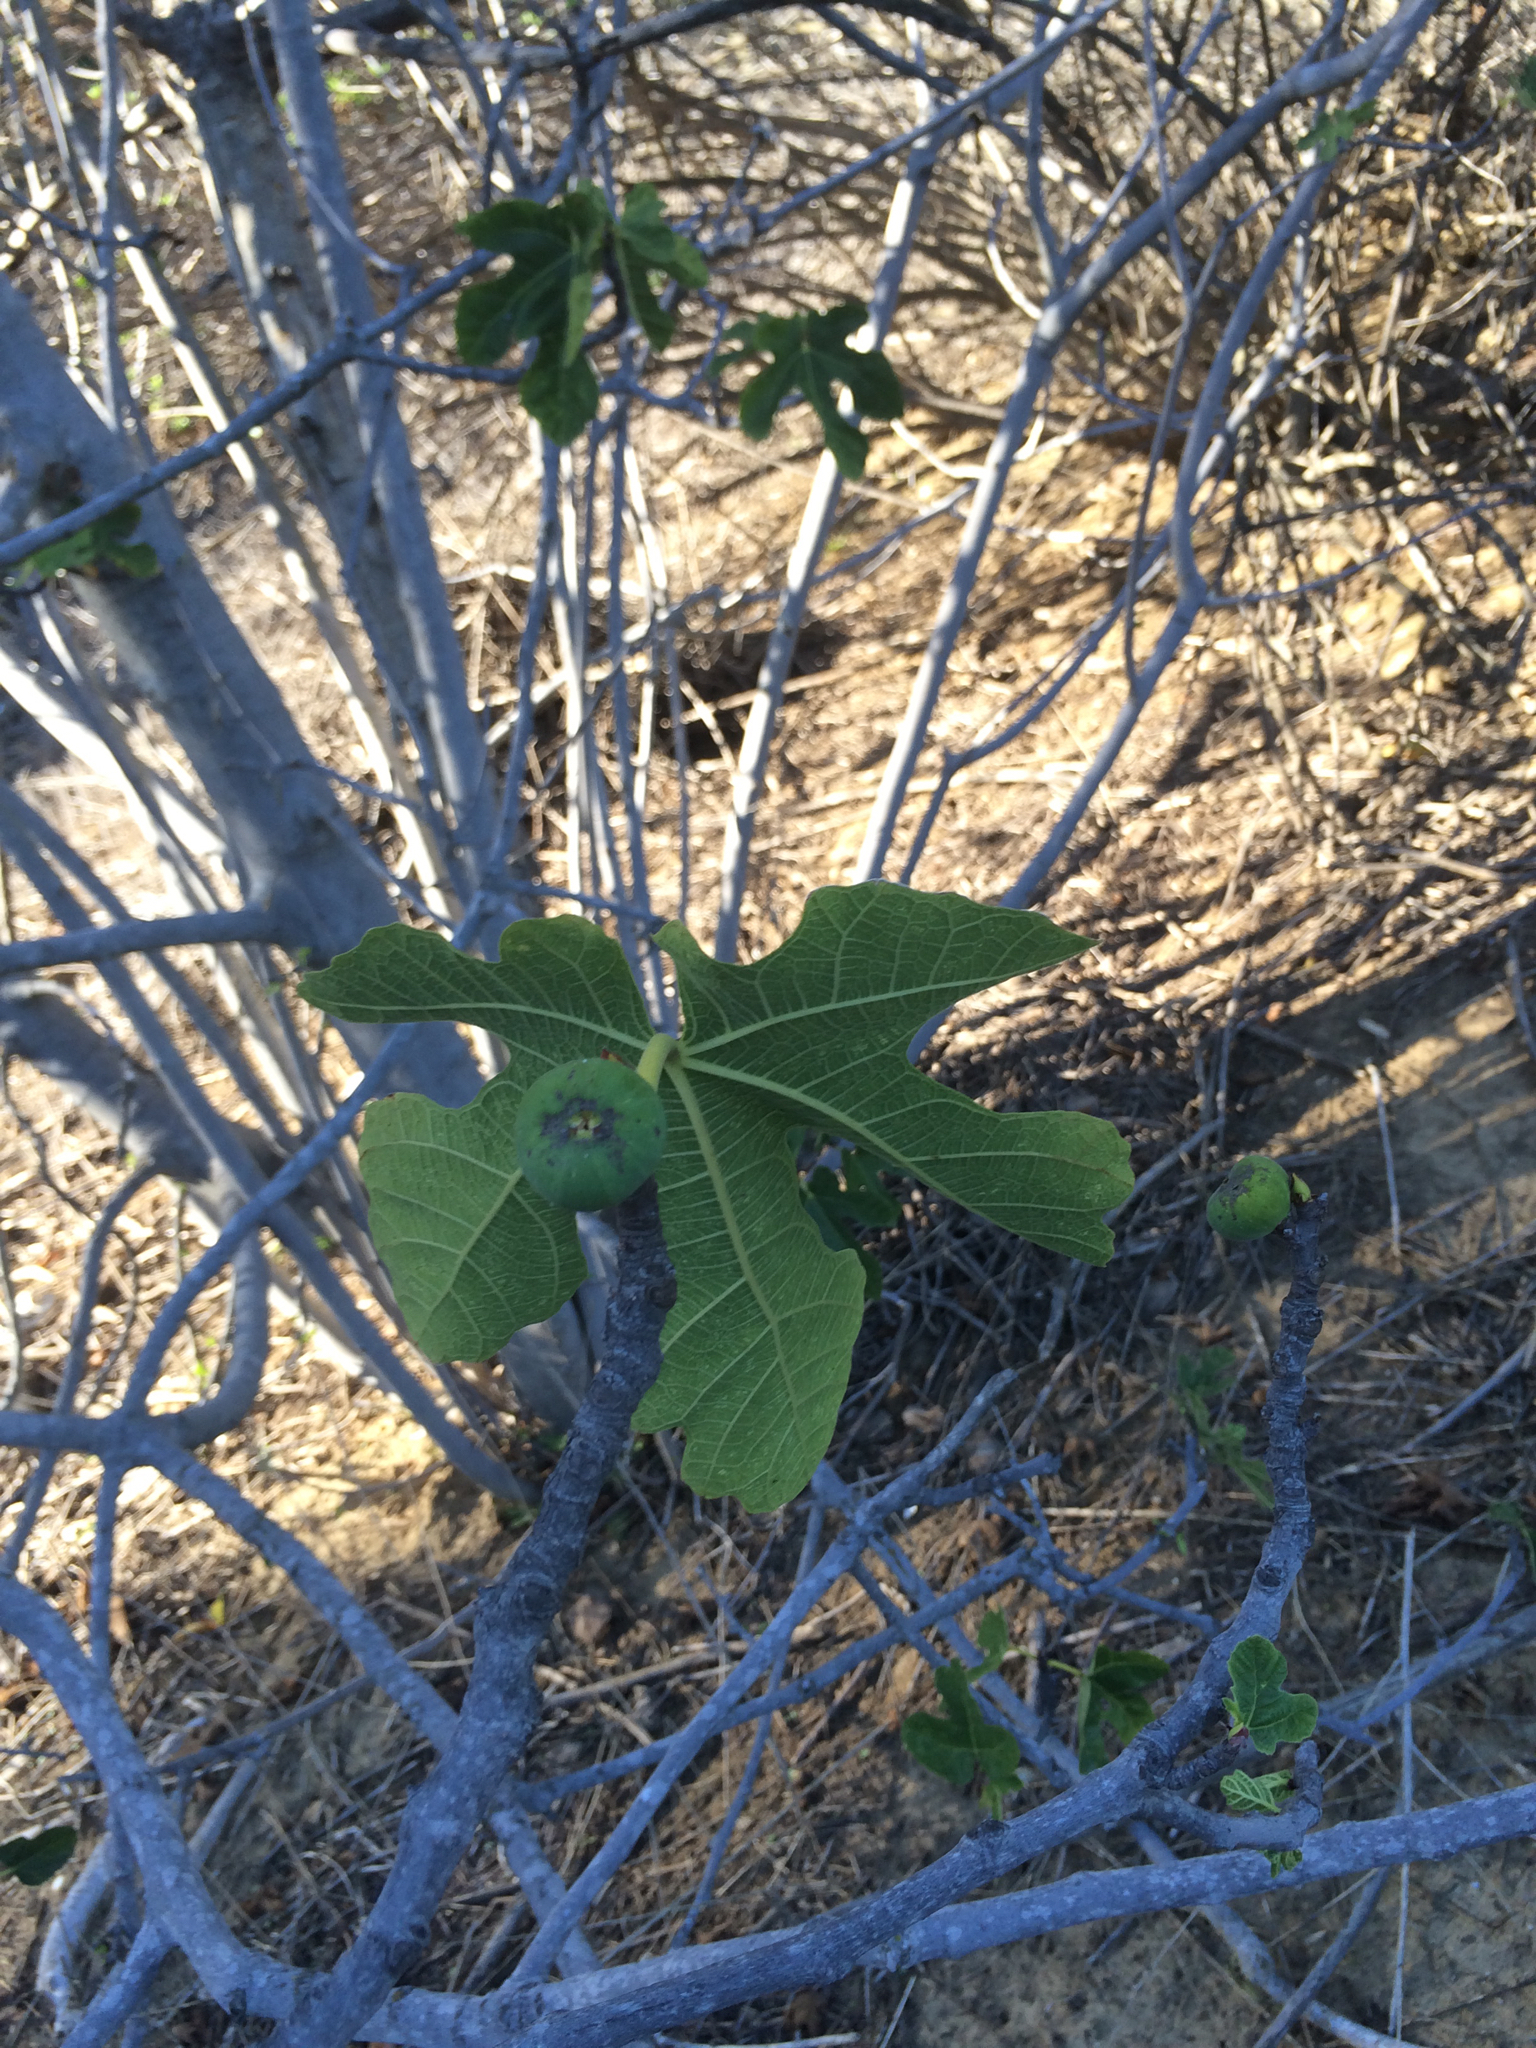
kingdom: Plantae
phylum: Tracheophyta
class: Magnoliopsida
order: Rosales
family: Moraceae
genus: Ficus
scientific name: Ficus carica
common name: Fig
